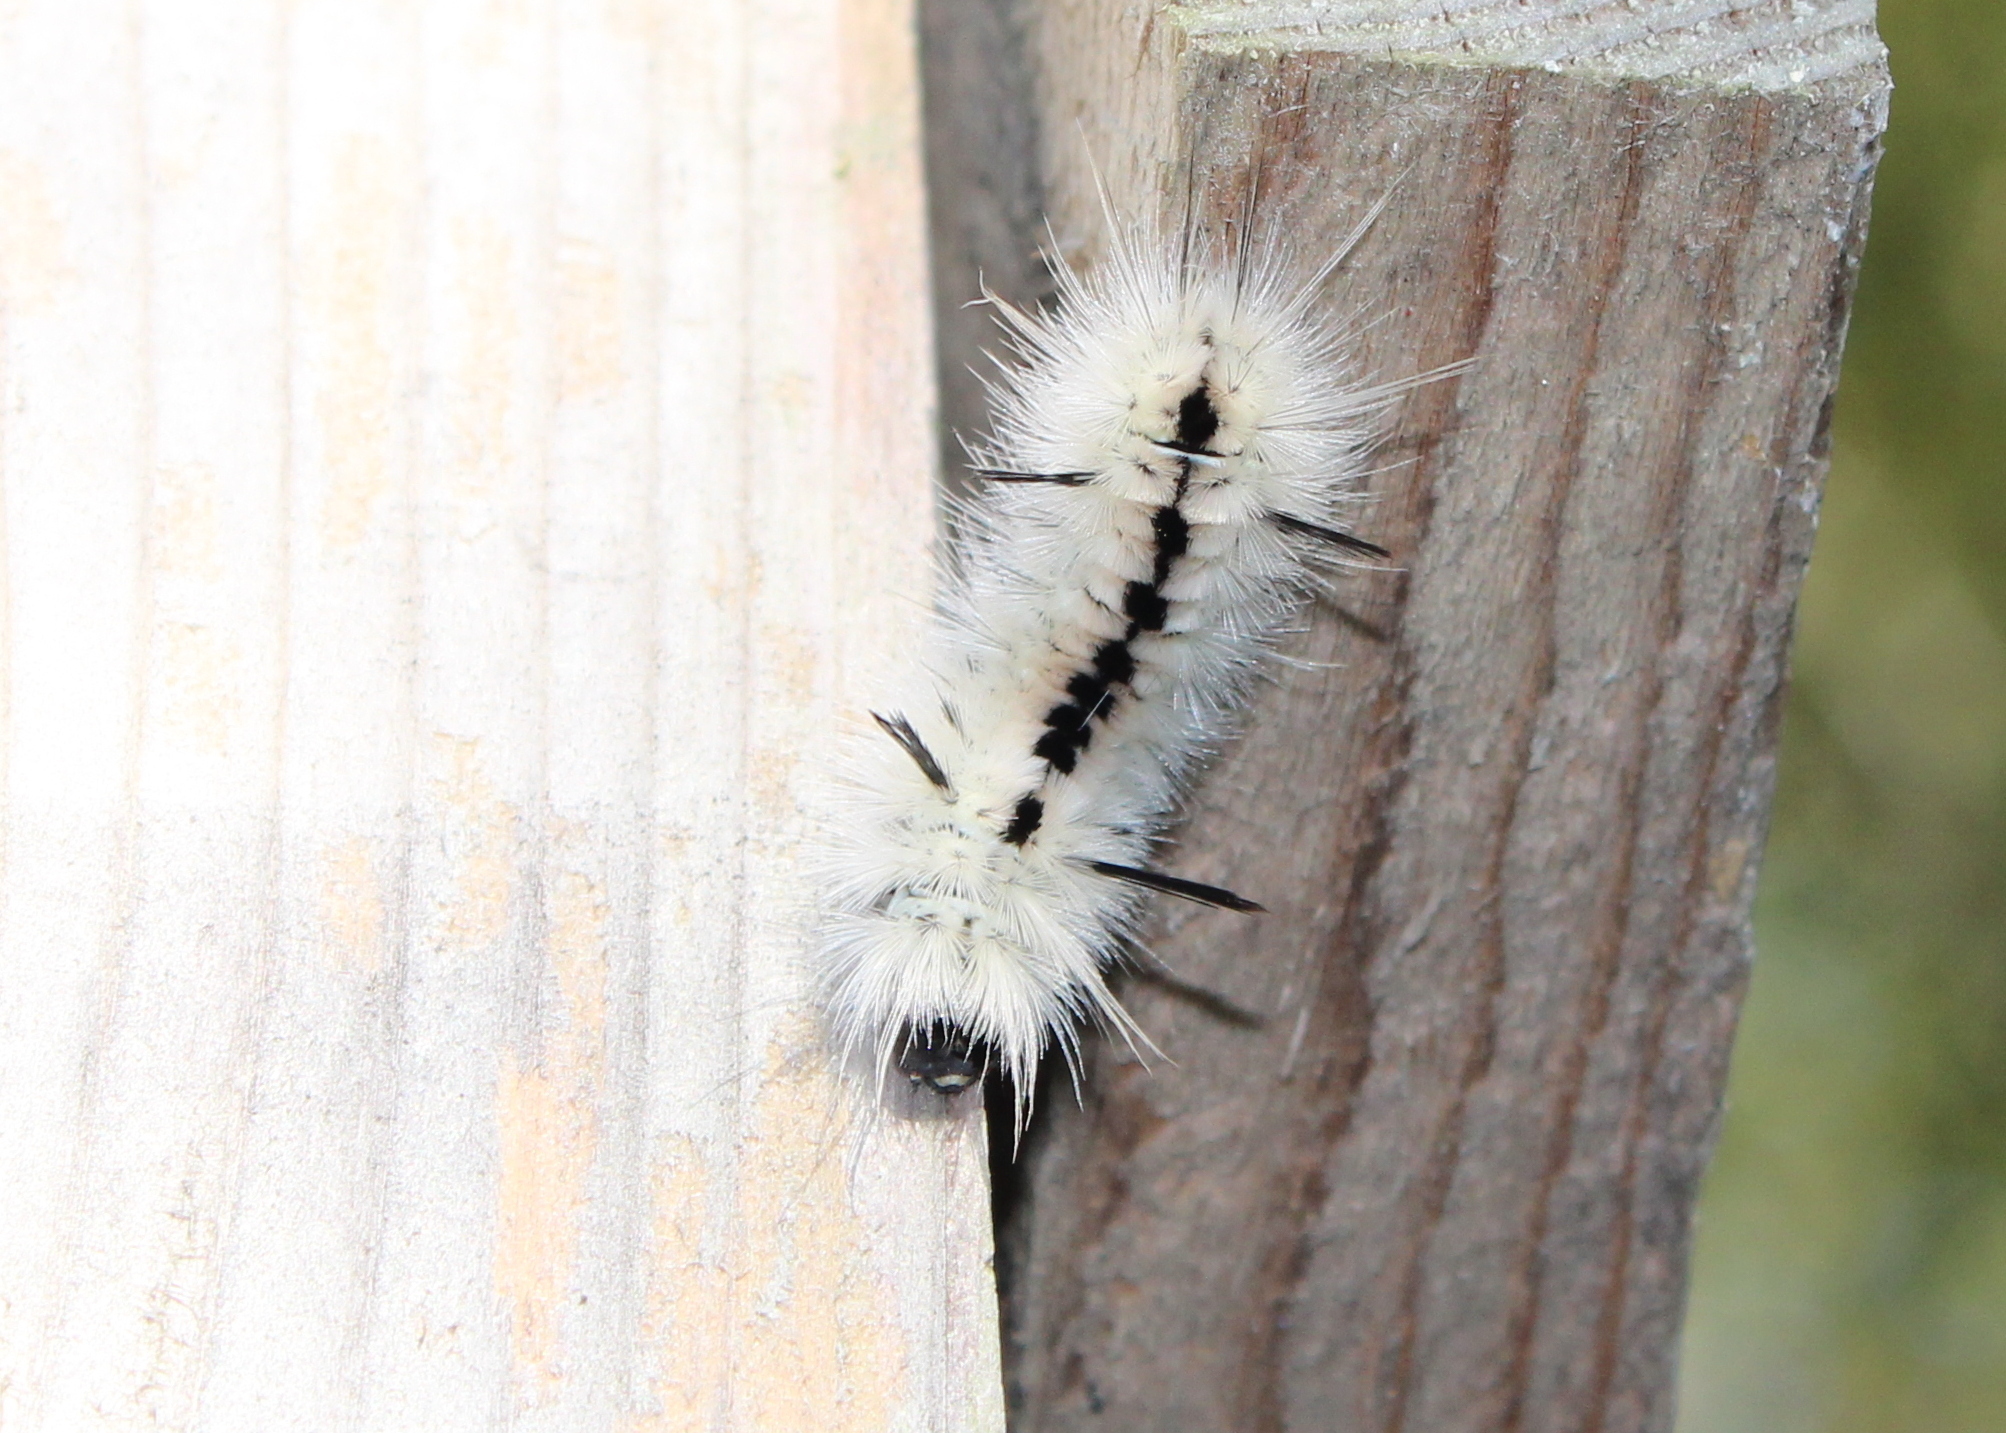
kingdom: Animalia
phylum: Arthropoda
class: Insecta
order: Lepidoptera
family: Erebidae
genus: Lophocampa
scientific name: Lophocampa caryae
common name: Hickory tussock moth
